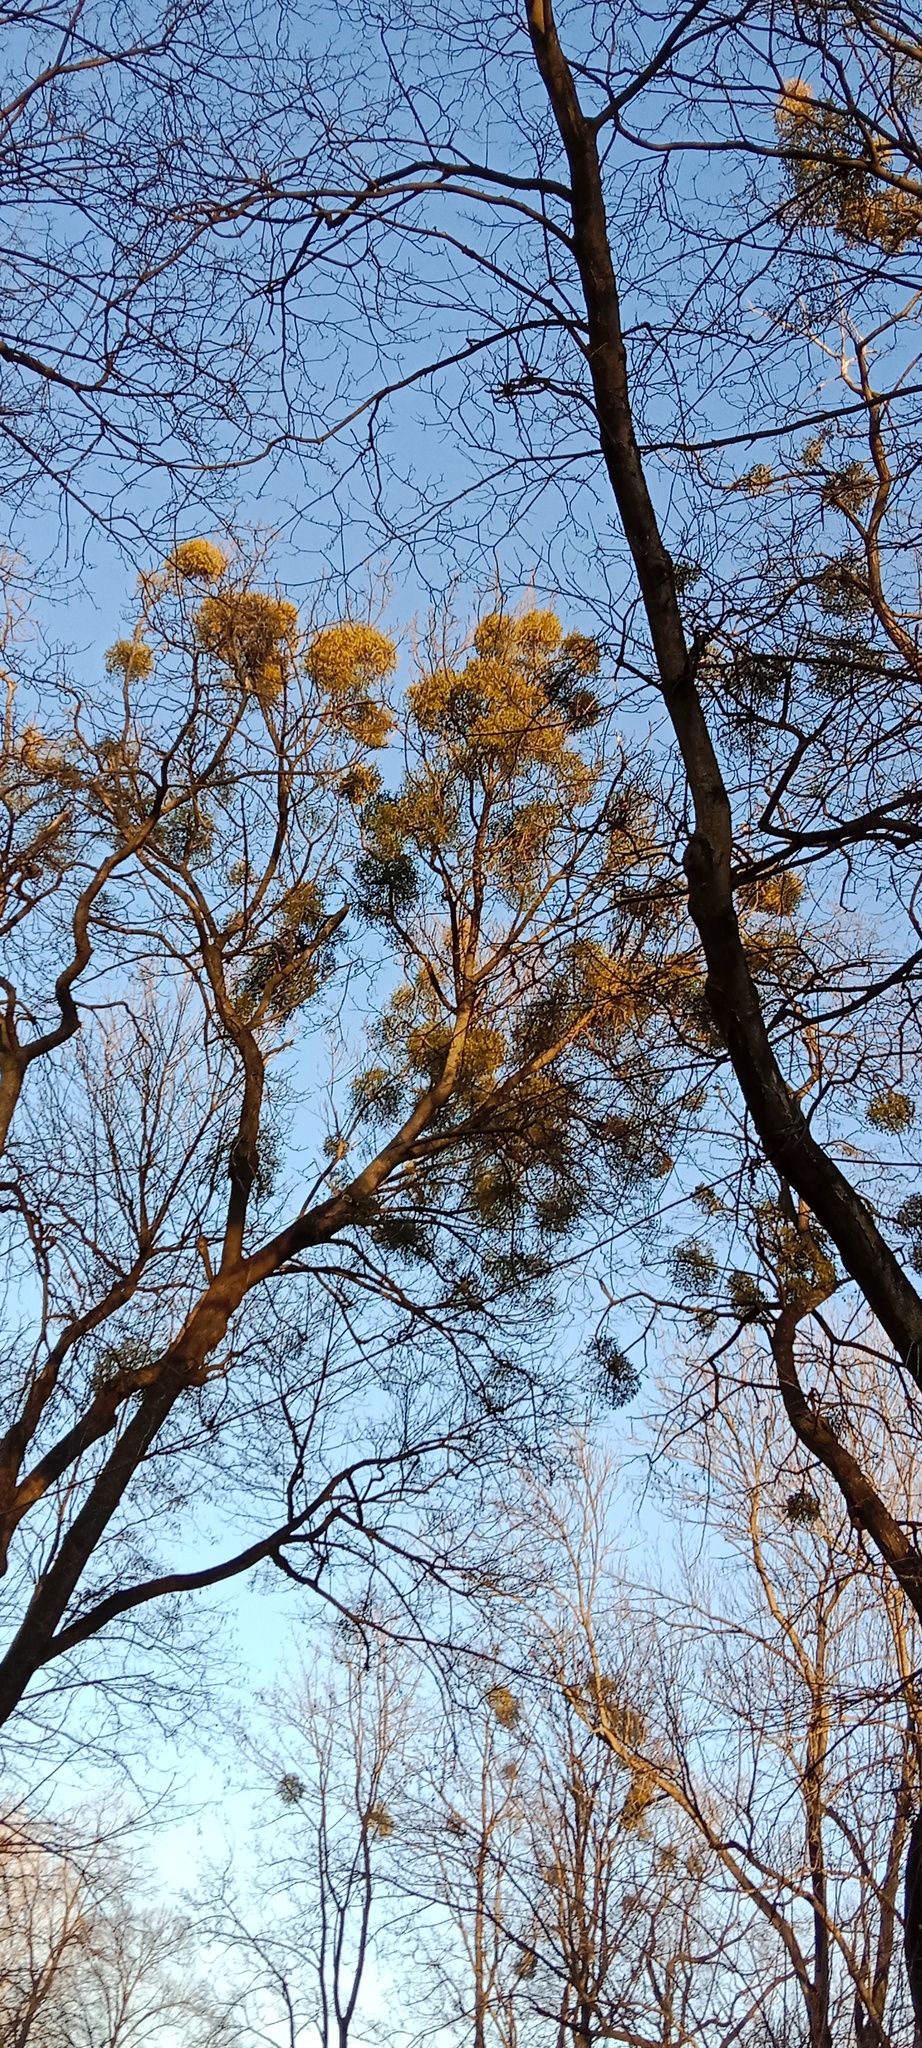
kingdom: Plantae
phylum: Tracheophyta
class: Magnoliopsida
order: Santalales
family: Viscaceae
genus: Viscum
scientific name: Viscum album
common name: Mistletoe
